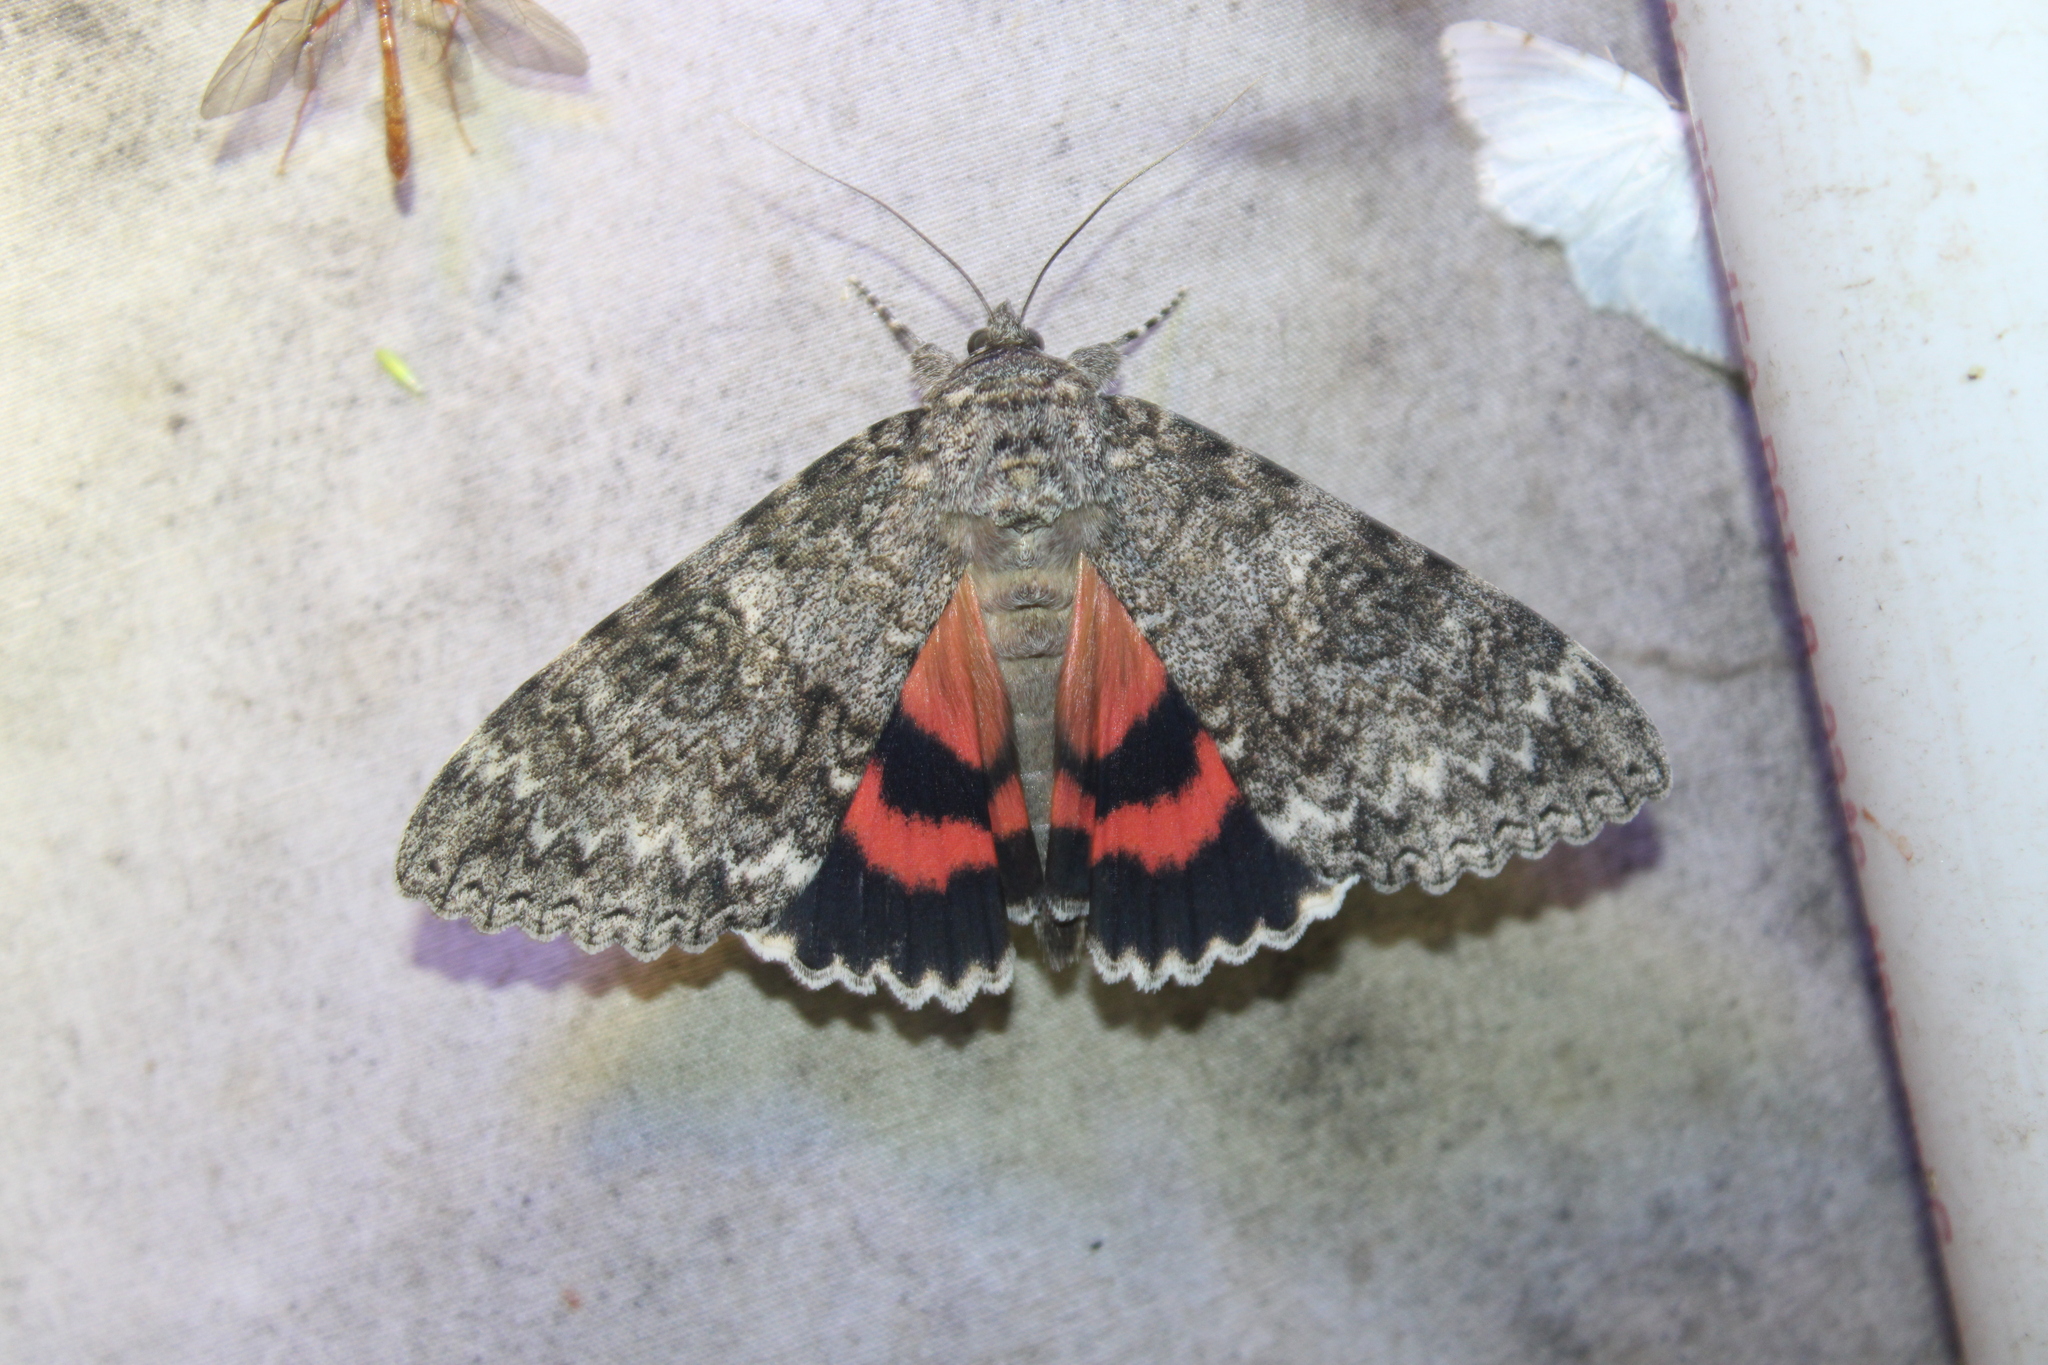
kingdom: Animalia
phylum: Arthropoda
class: Insecta
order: Lepidoptera
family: Erebidae
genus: Catocala
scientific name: Catocala unijuga
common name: Once-married underwing
